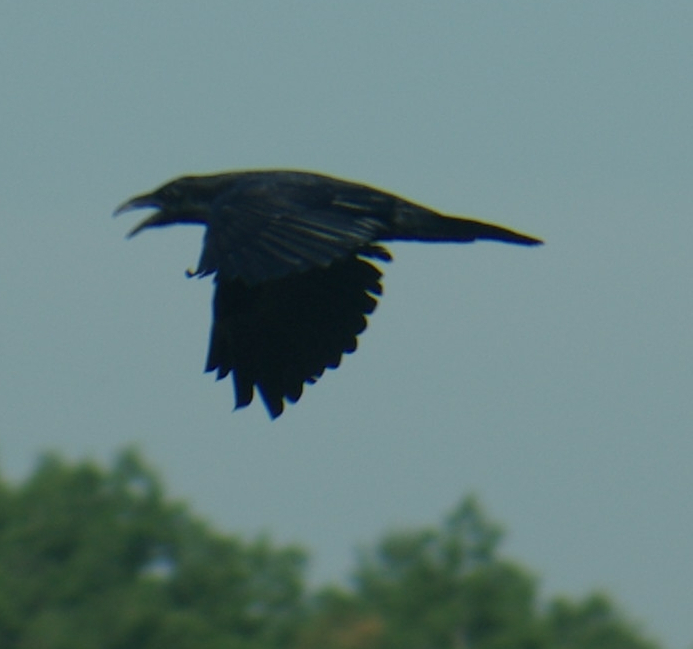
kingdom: Animalia
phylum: Chordata
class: Aves
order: Passeriformes
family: Corvidae
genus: Corvus
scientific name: Corvus corax
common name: Common raven
